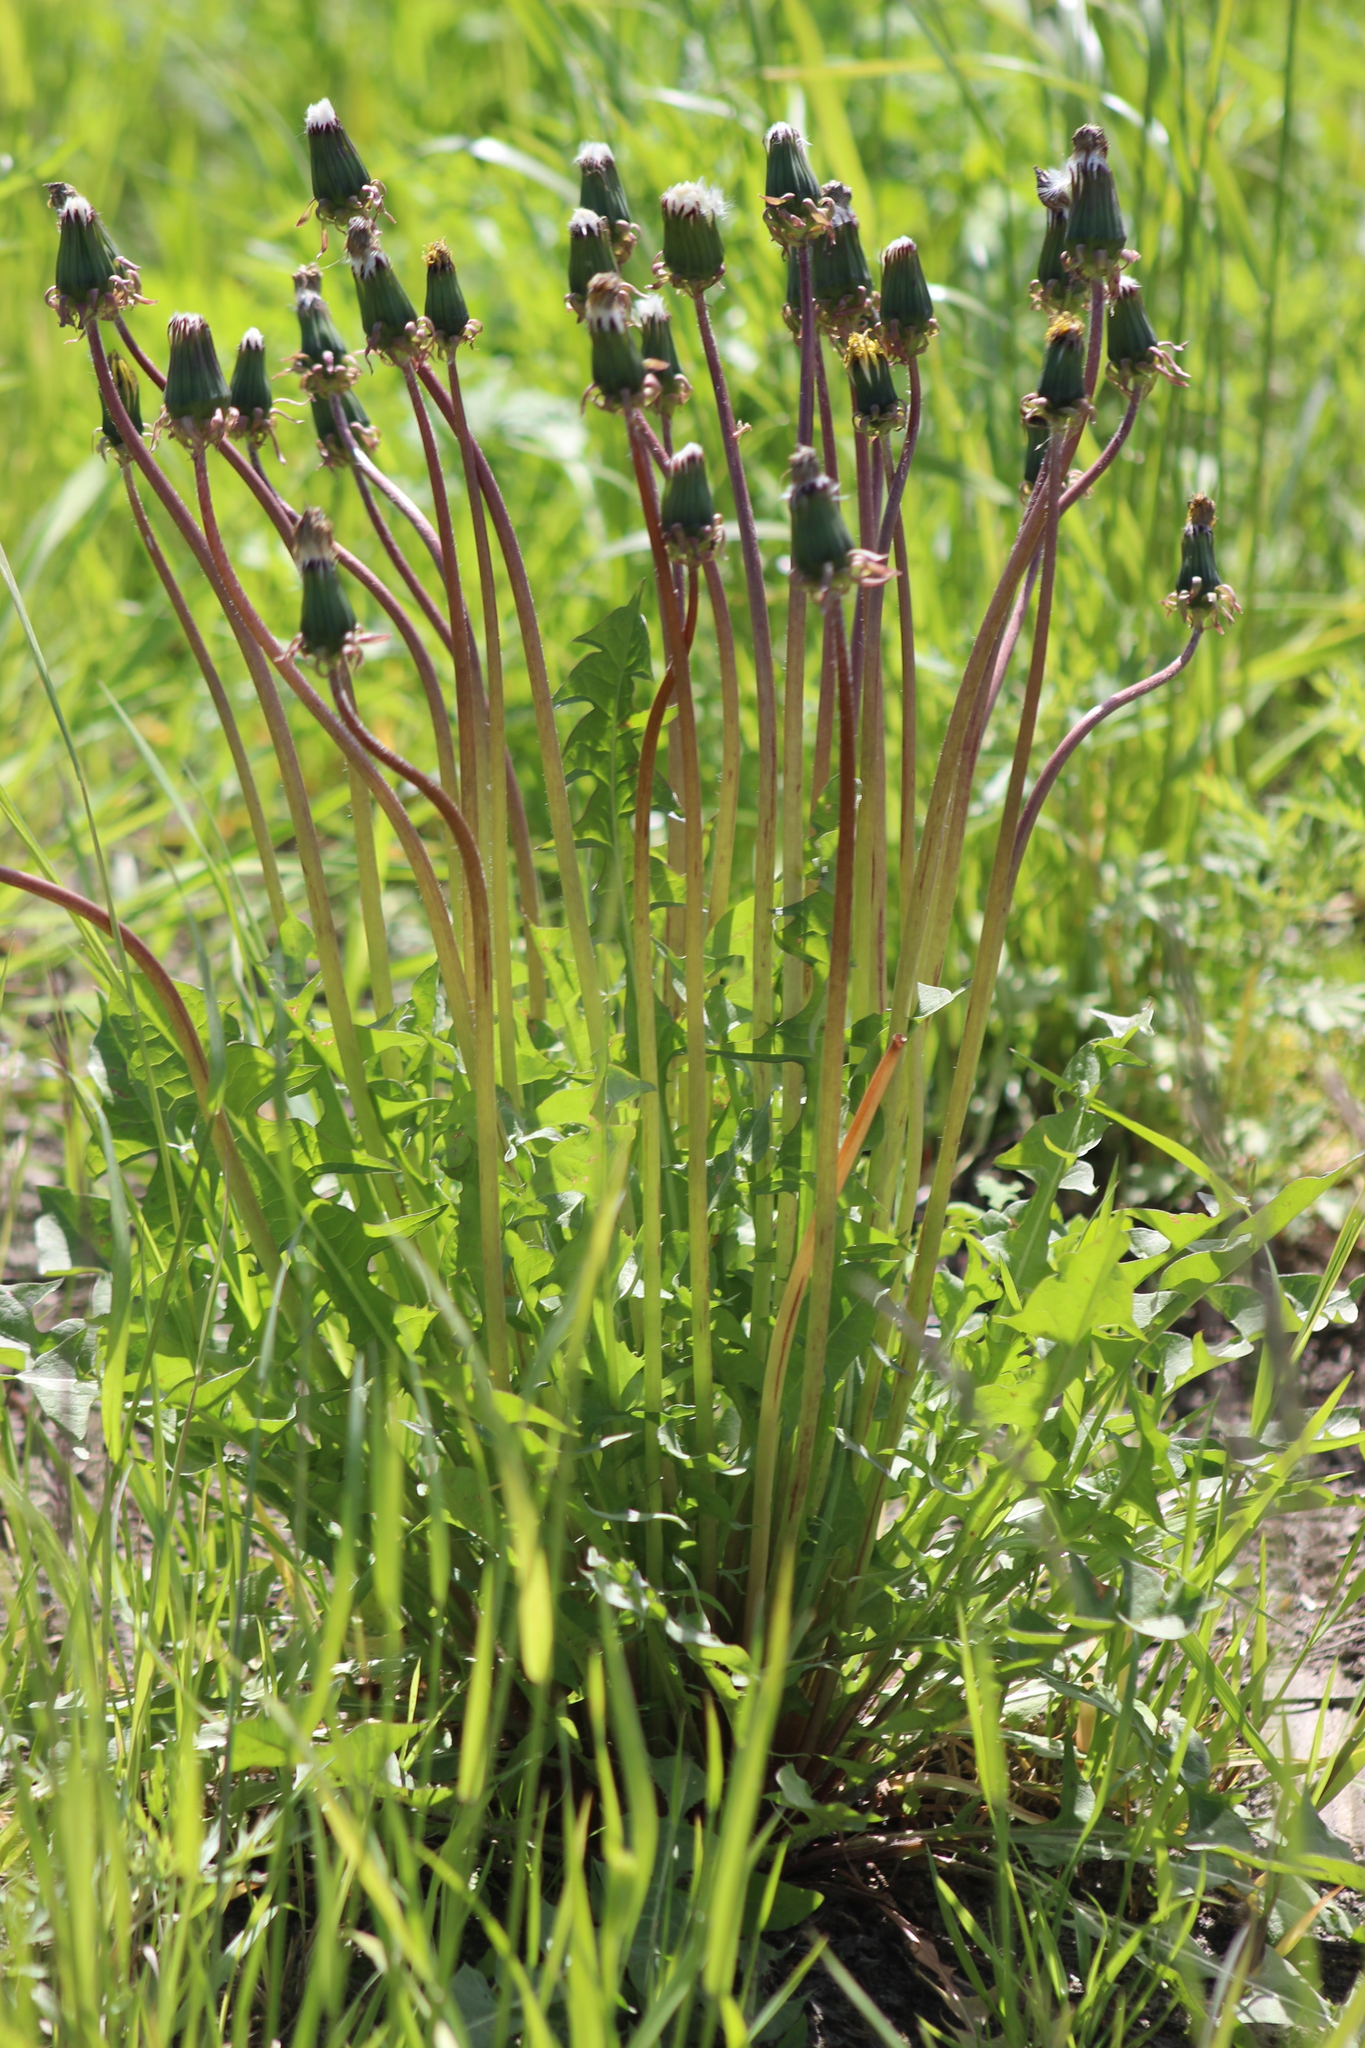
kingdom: Plantae
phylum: Tracheophyta
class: Magnoliopsida
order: Asterales
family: Asteraceae
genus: Taraxacum
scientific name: Taraxacum officinale
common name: Common dandelion
